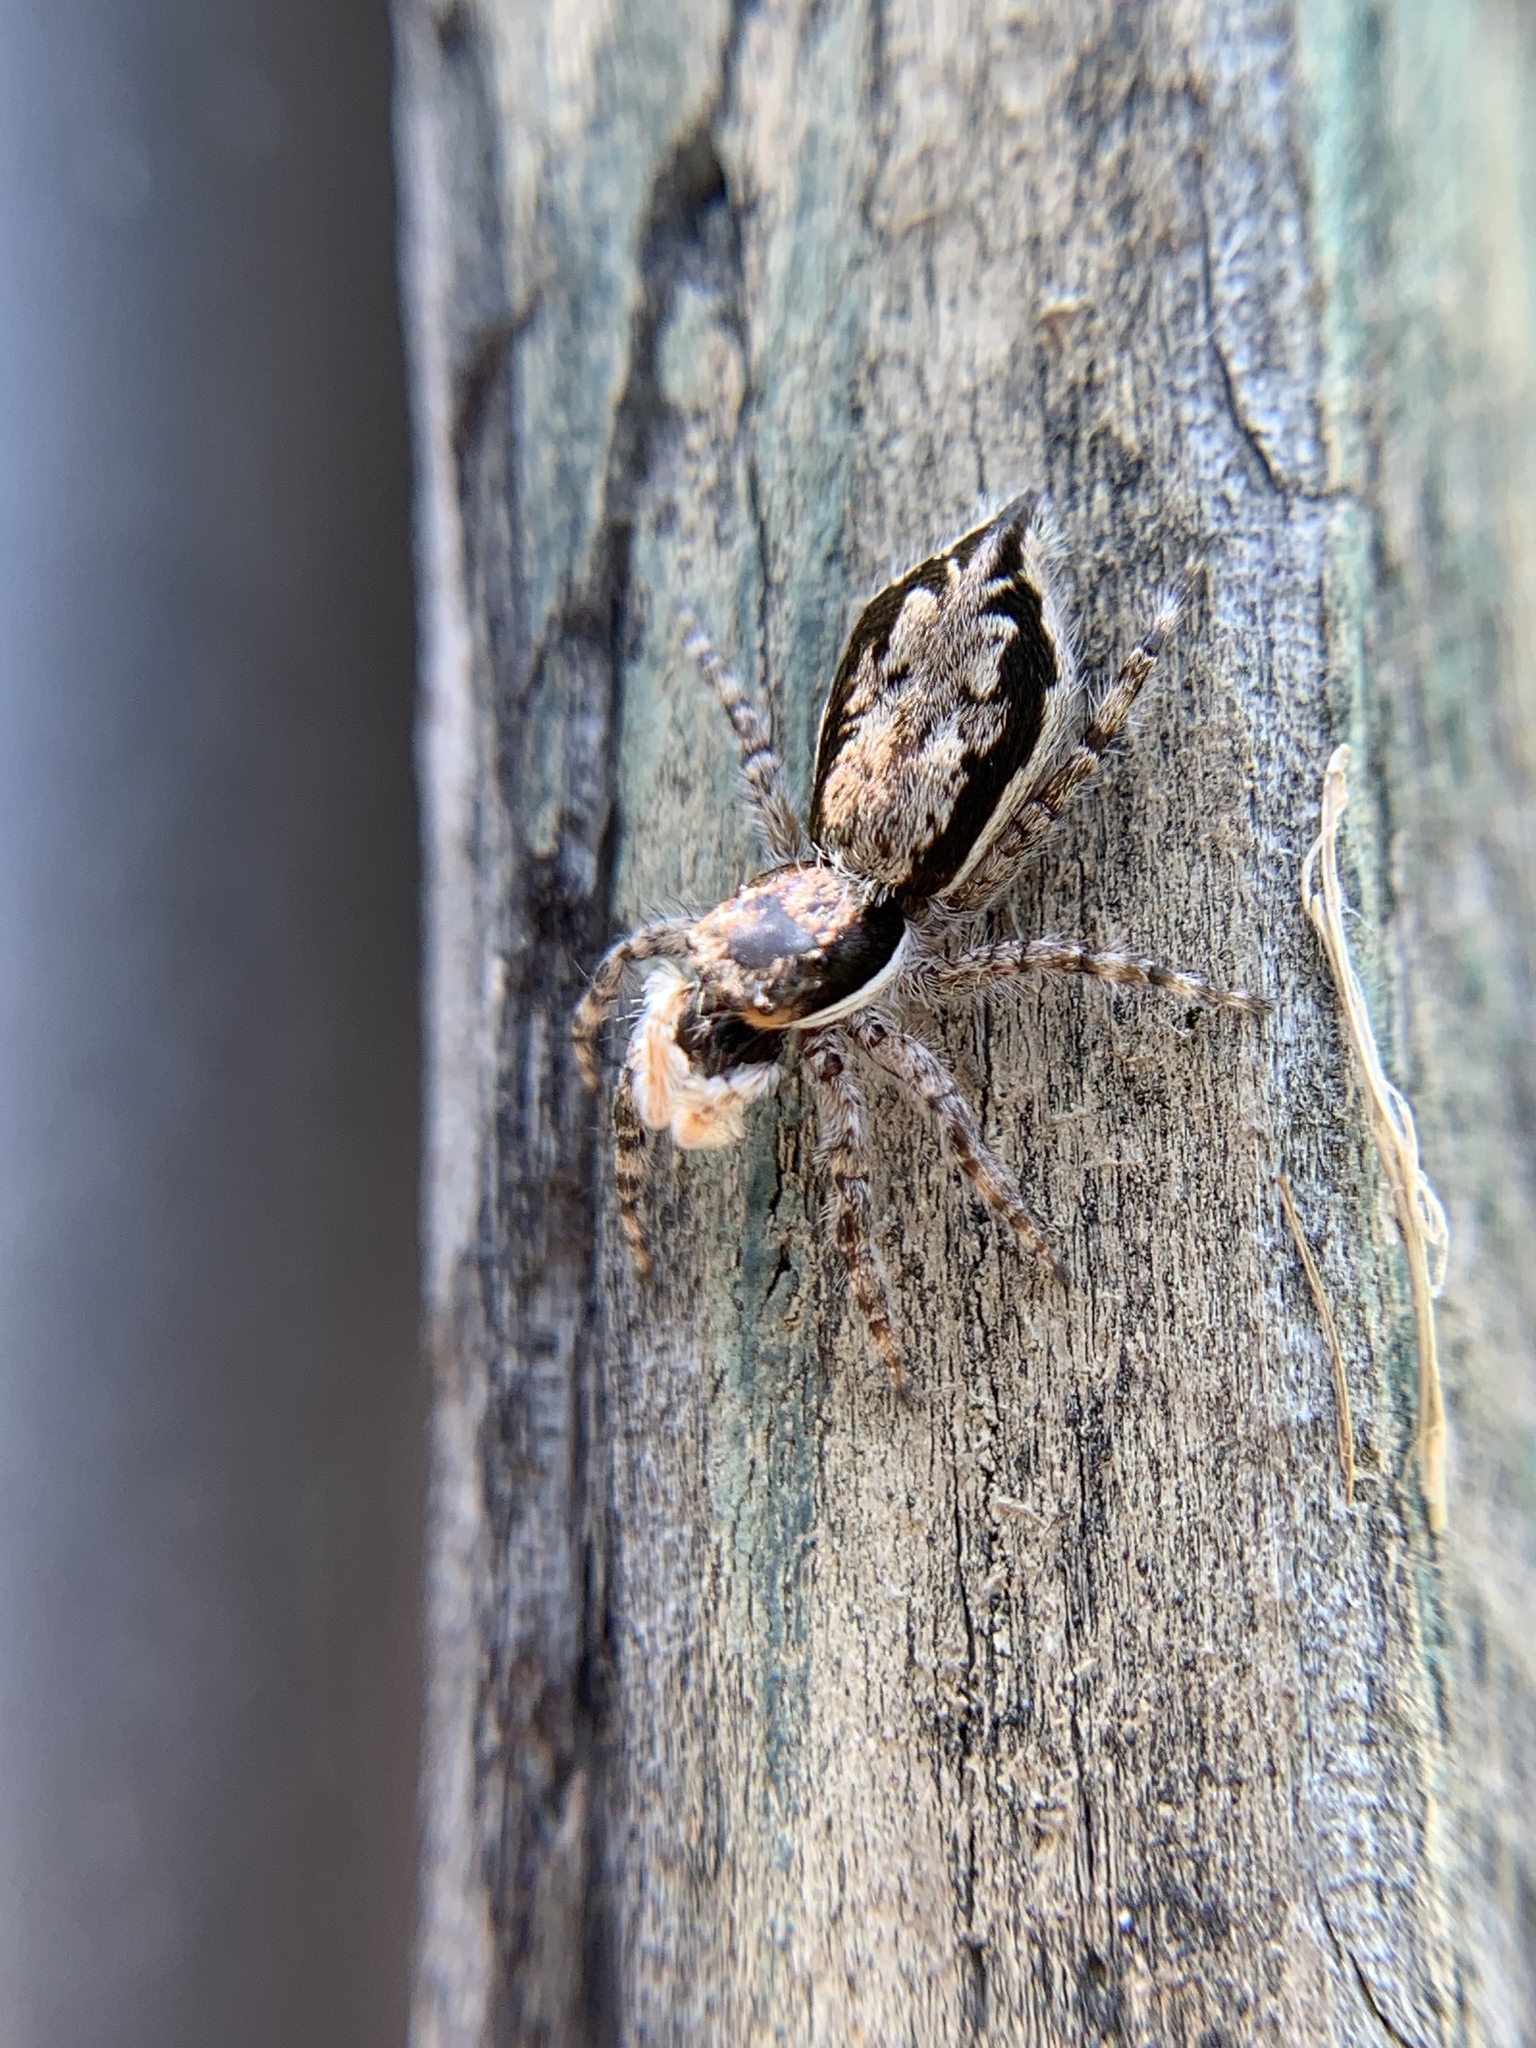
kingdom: Animalia
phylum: Arthropoda
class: Arachnida
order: Araneae
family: Salticidae
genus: Menemerus
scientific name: Menemerus bivittatus
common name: Gray wall jumper
